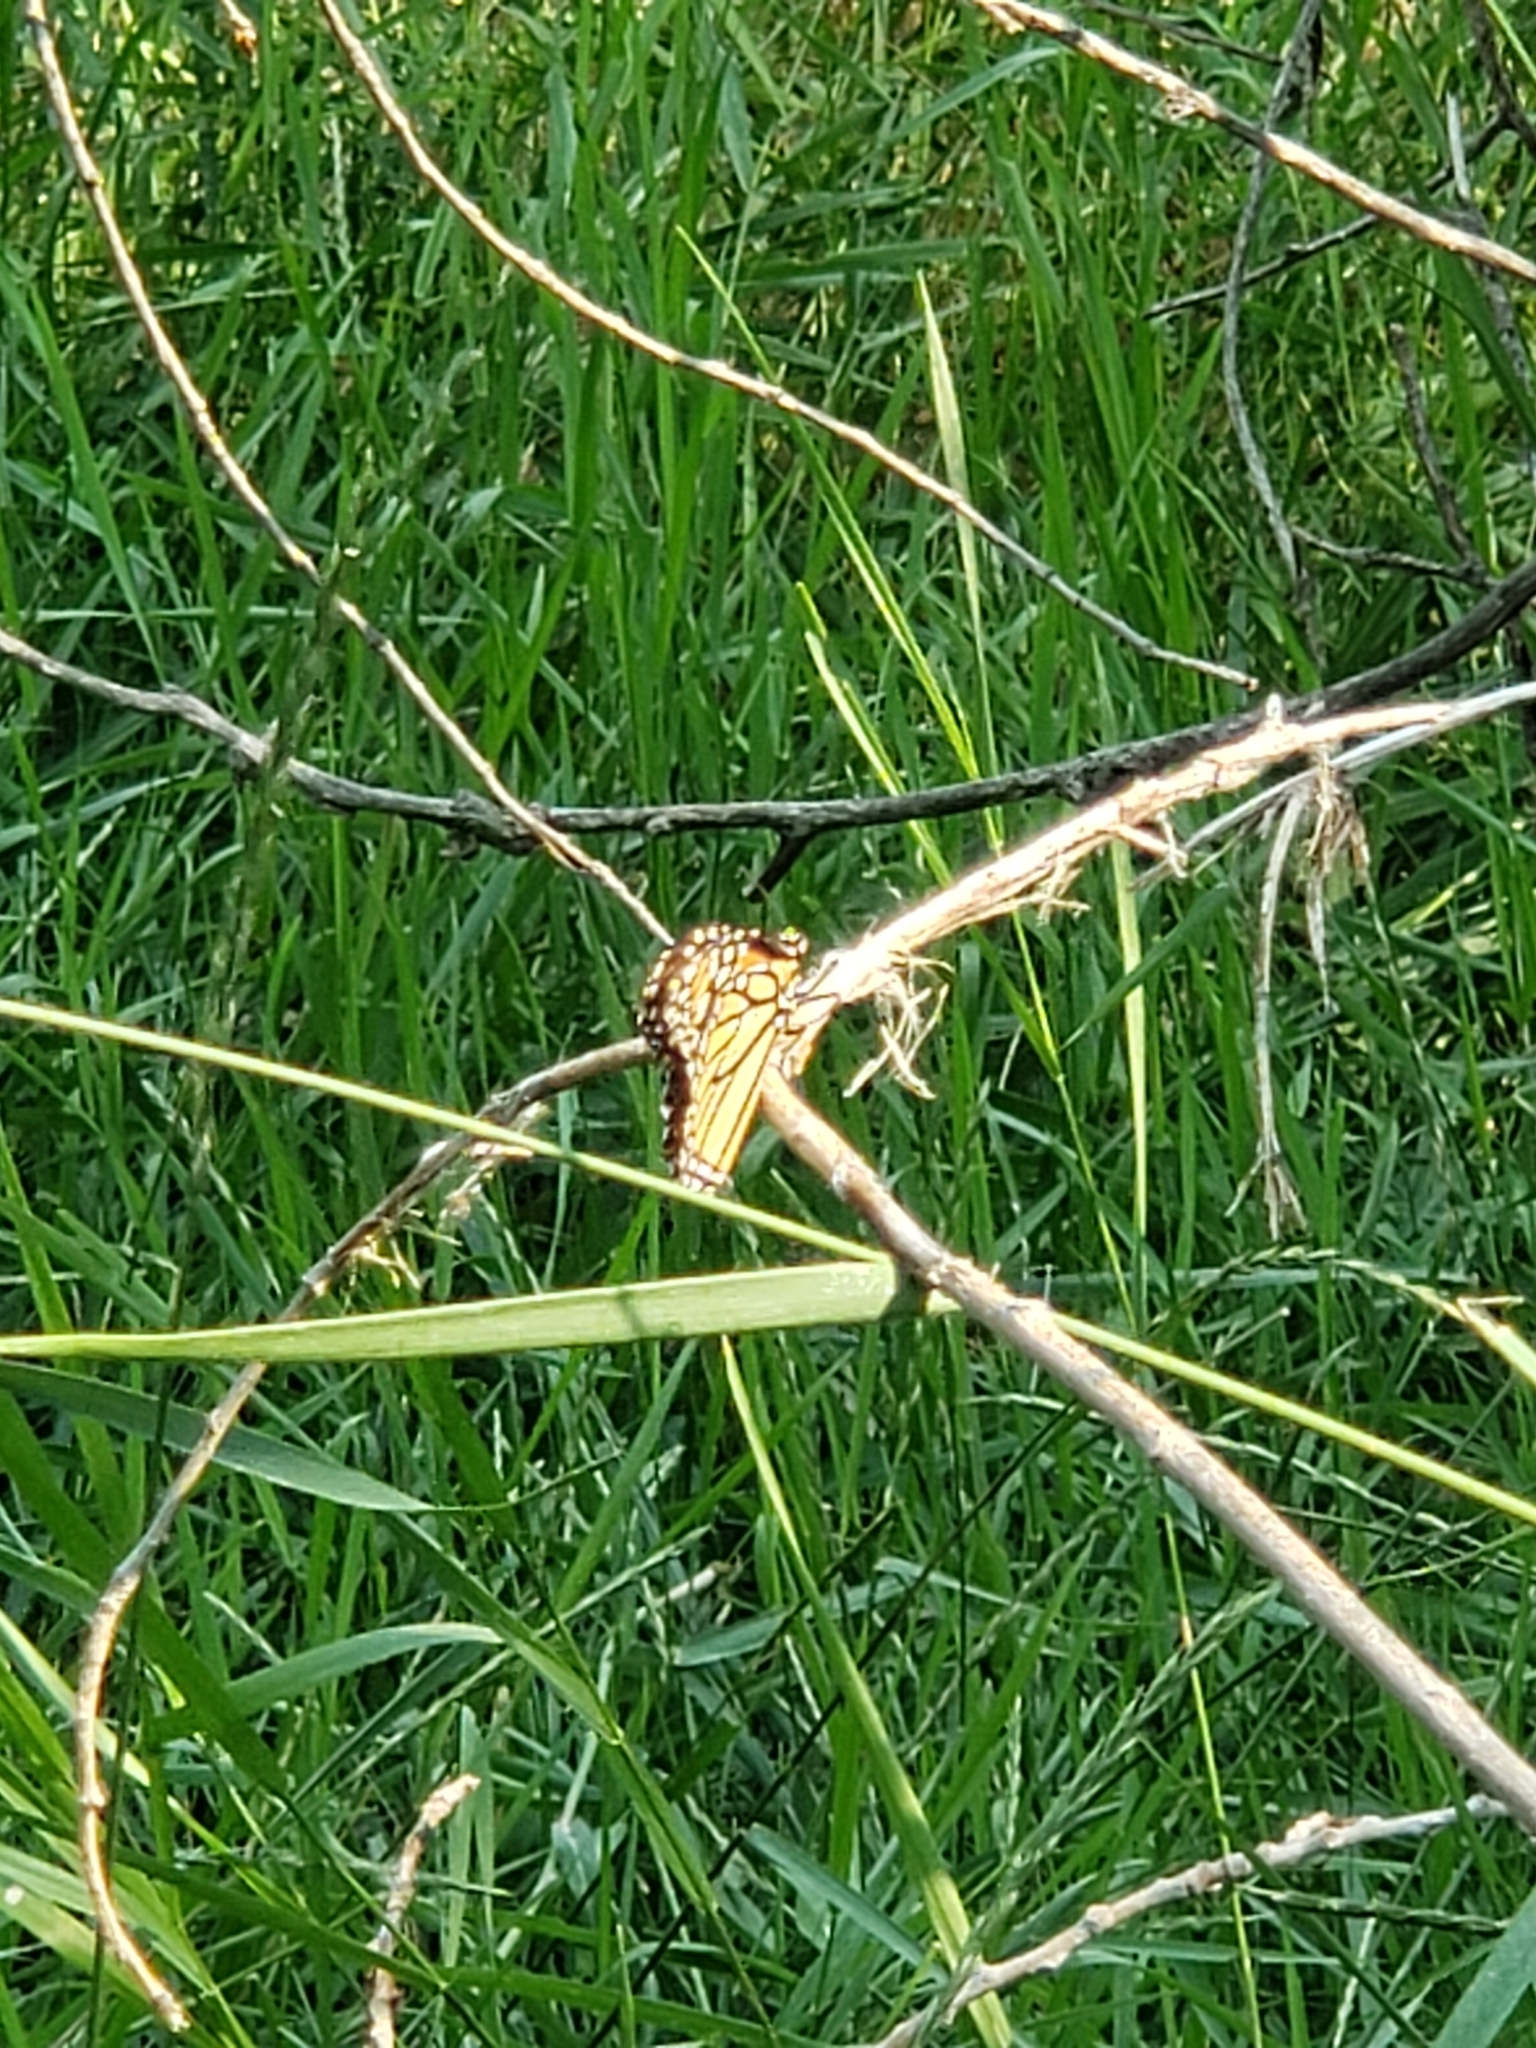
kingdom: Animalia
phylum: Arthropoda
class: Insecta
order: Lepidoptera
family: Nymphalidae
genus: Danaus
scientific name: Danaus plexippus
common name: Monarch
